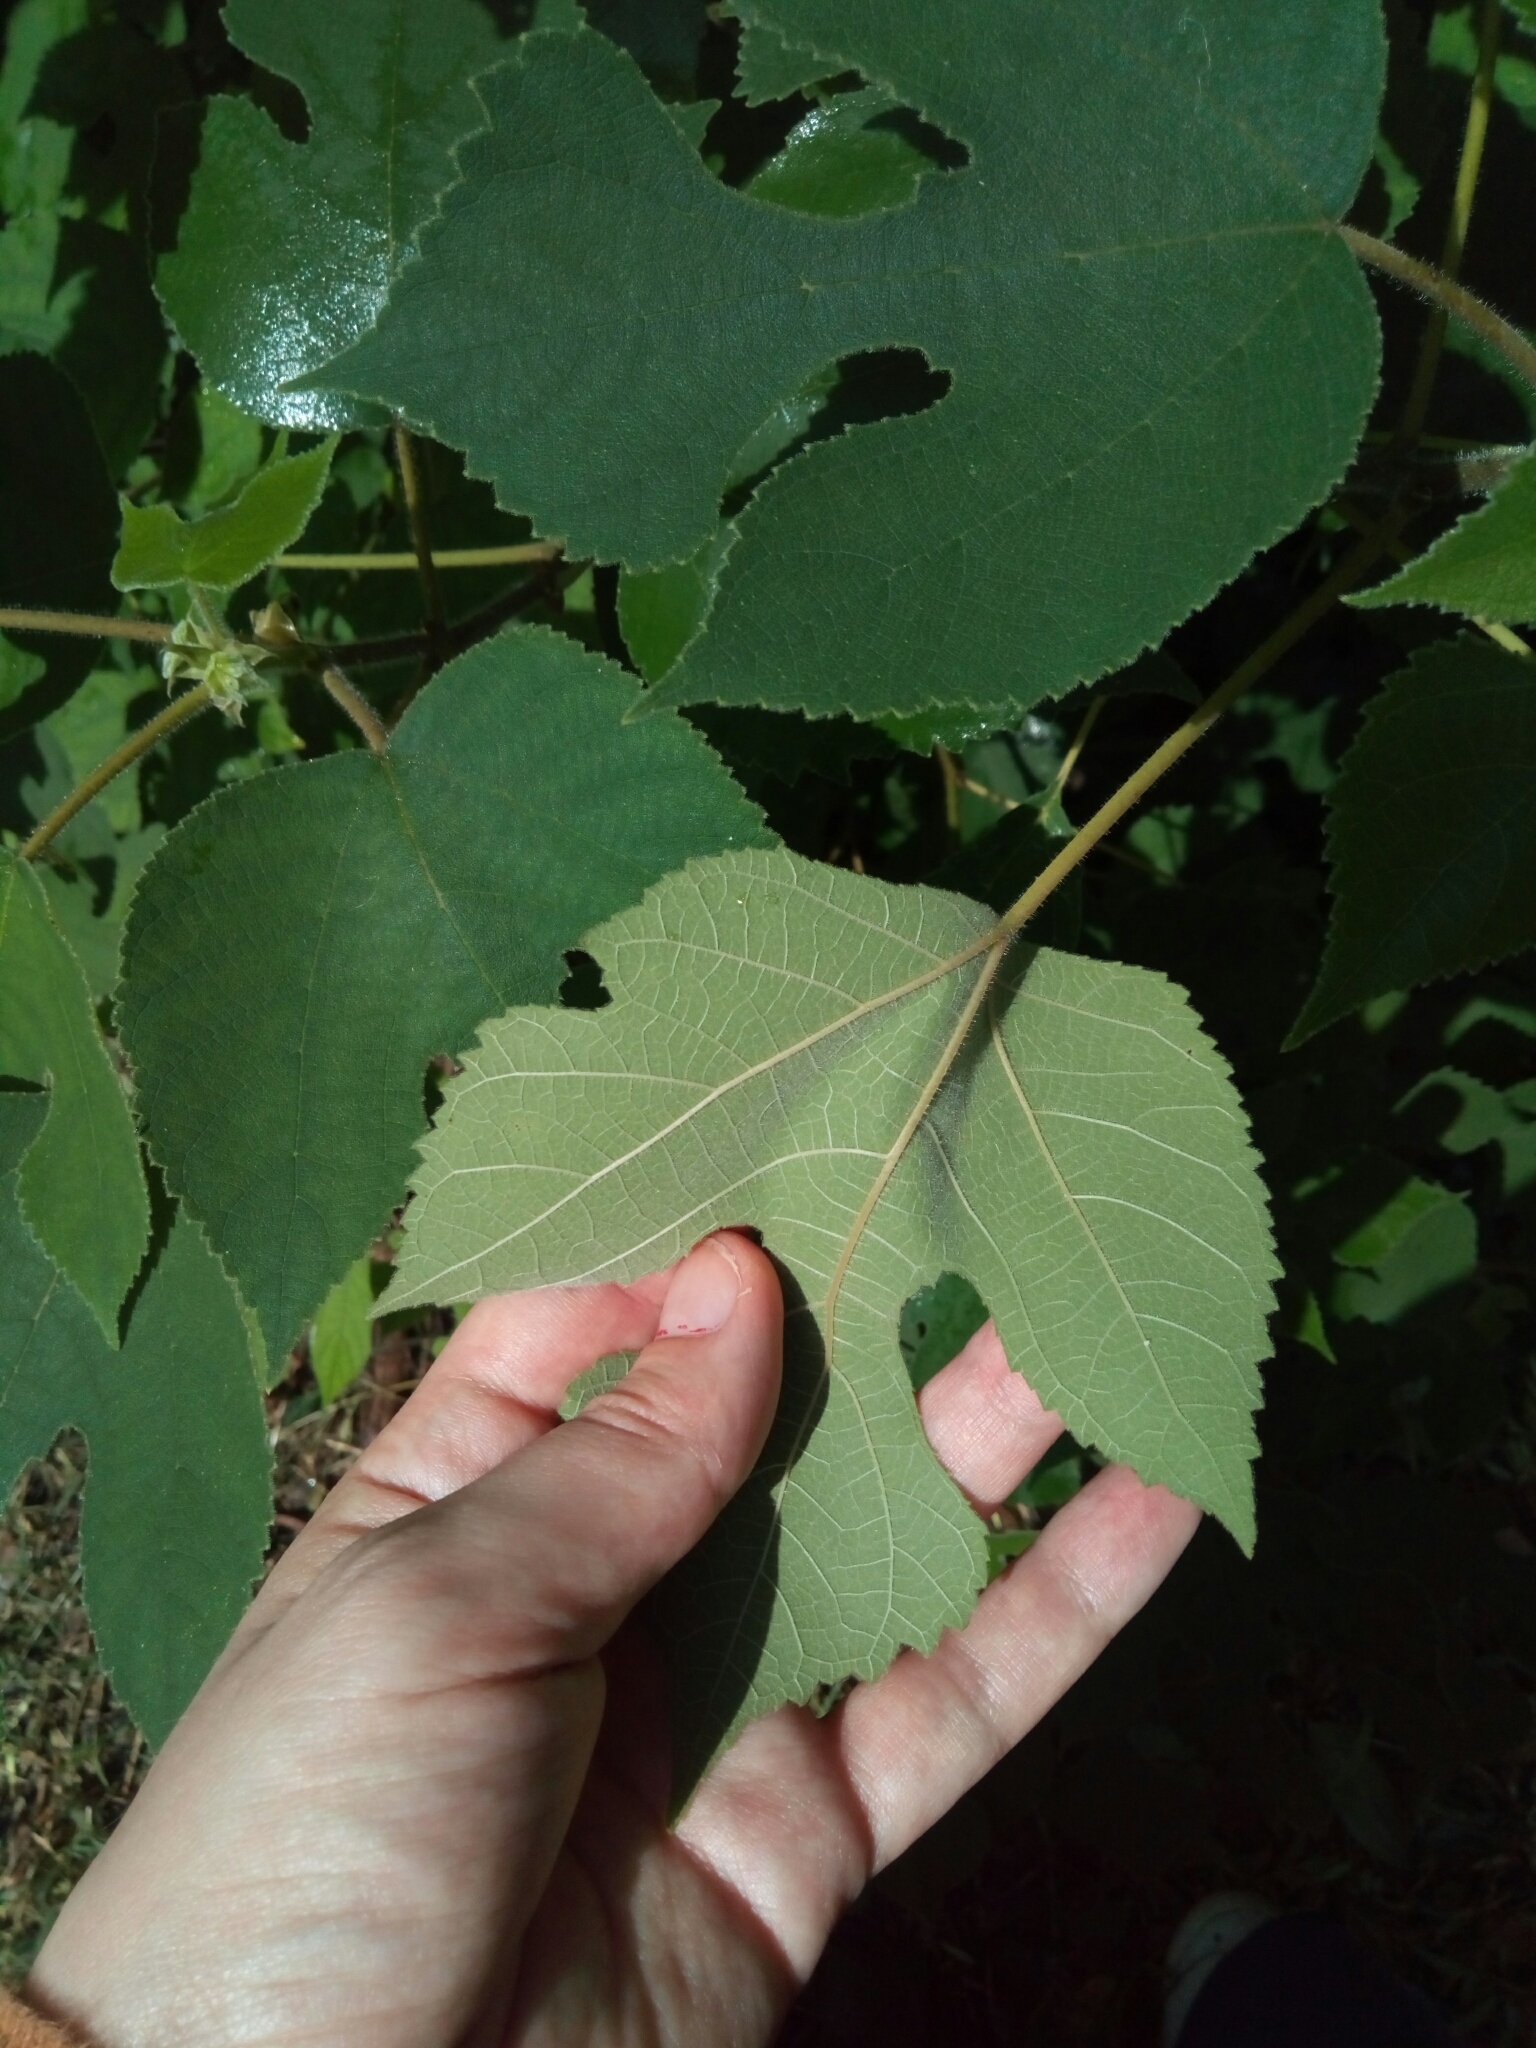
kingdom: Plantae
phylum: Tracheophyta
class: Magnoliopsida
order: Rosales
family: Moraceae
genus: Broussonetia
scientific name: Broussonetia papyrifera
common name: Paper mulberry
